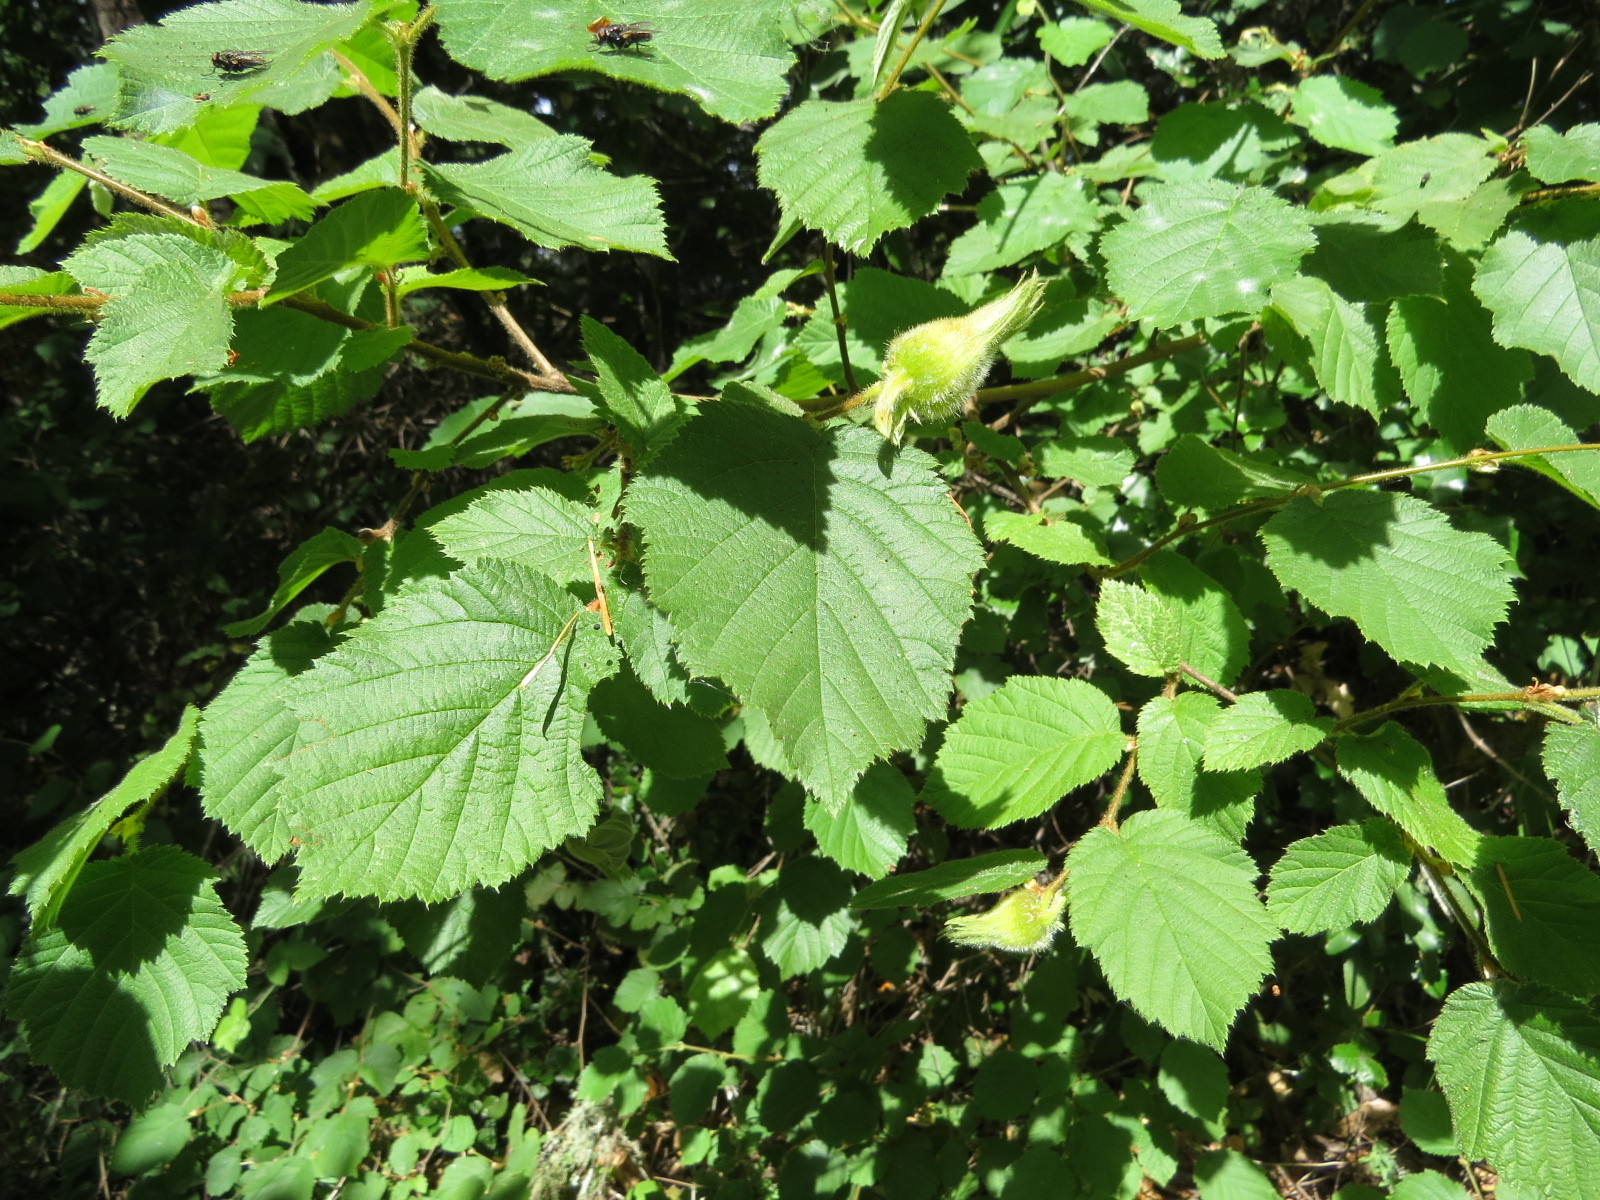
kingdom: Plantae
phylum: Tracheophyta
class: Magnoliopsida
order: Fagales
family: Betulaceae
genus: Corylus
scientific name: Corylus cornuta
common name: Beaked hazel
